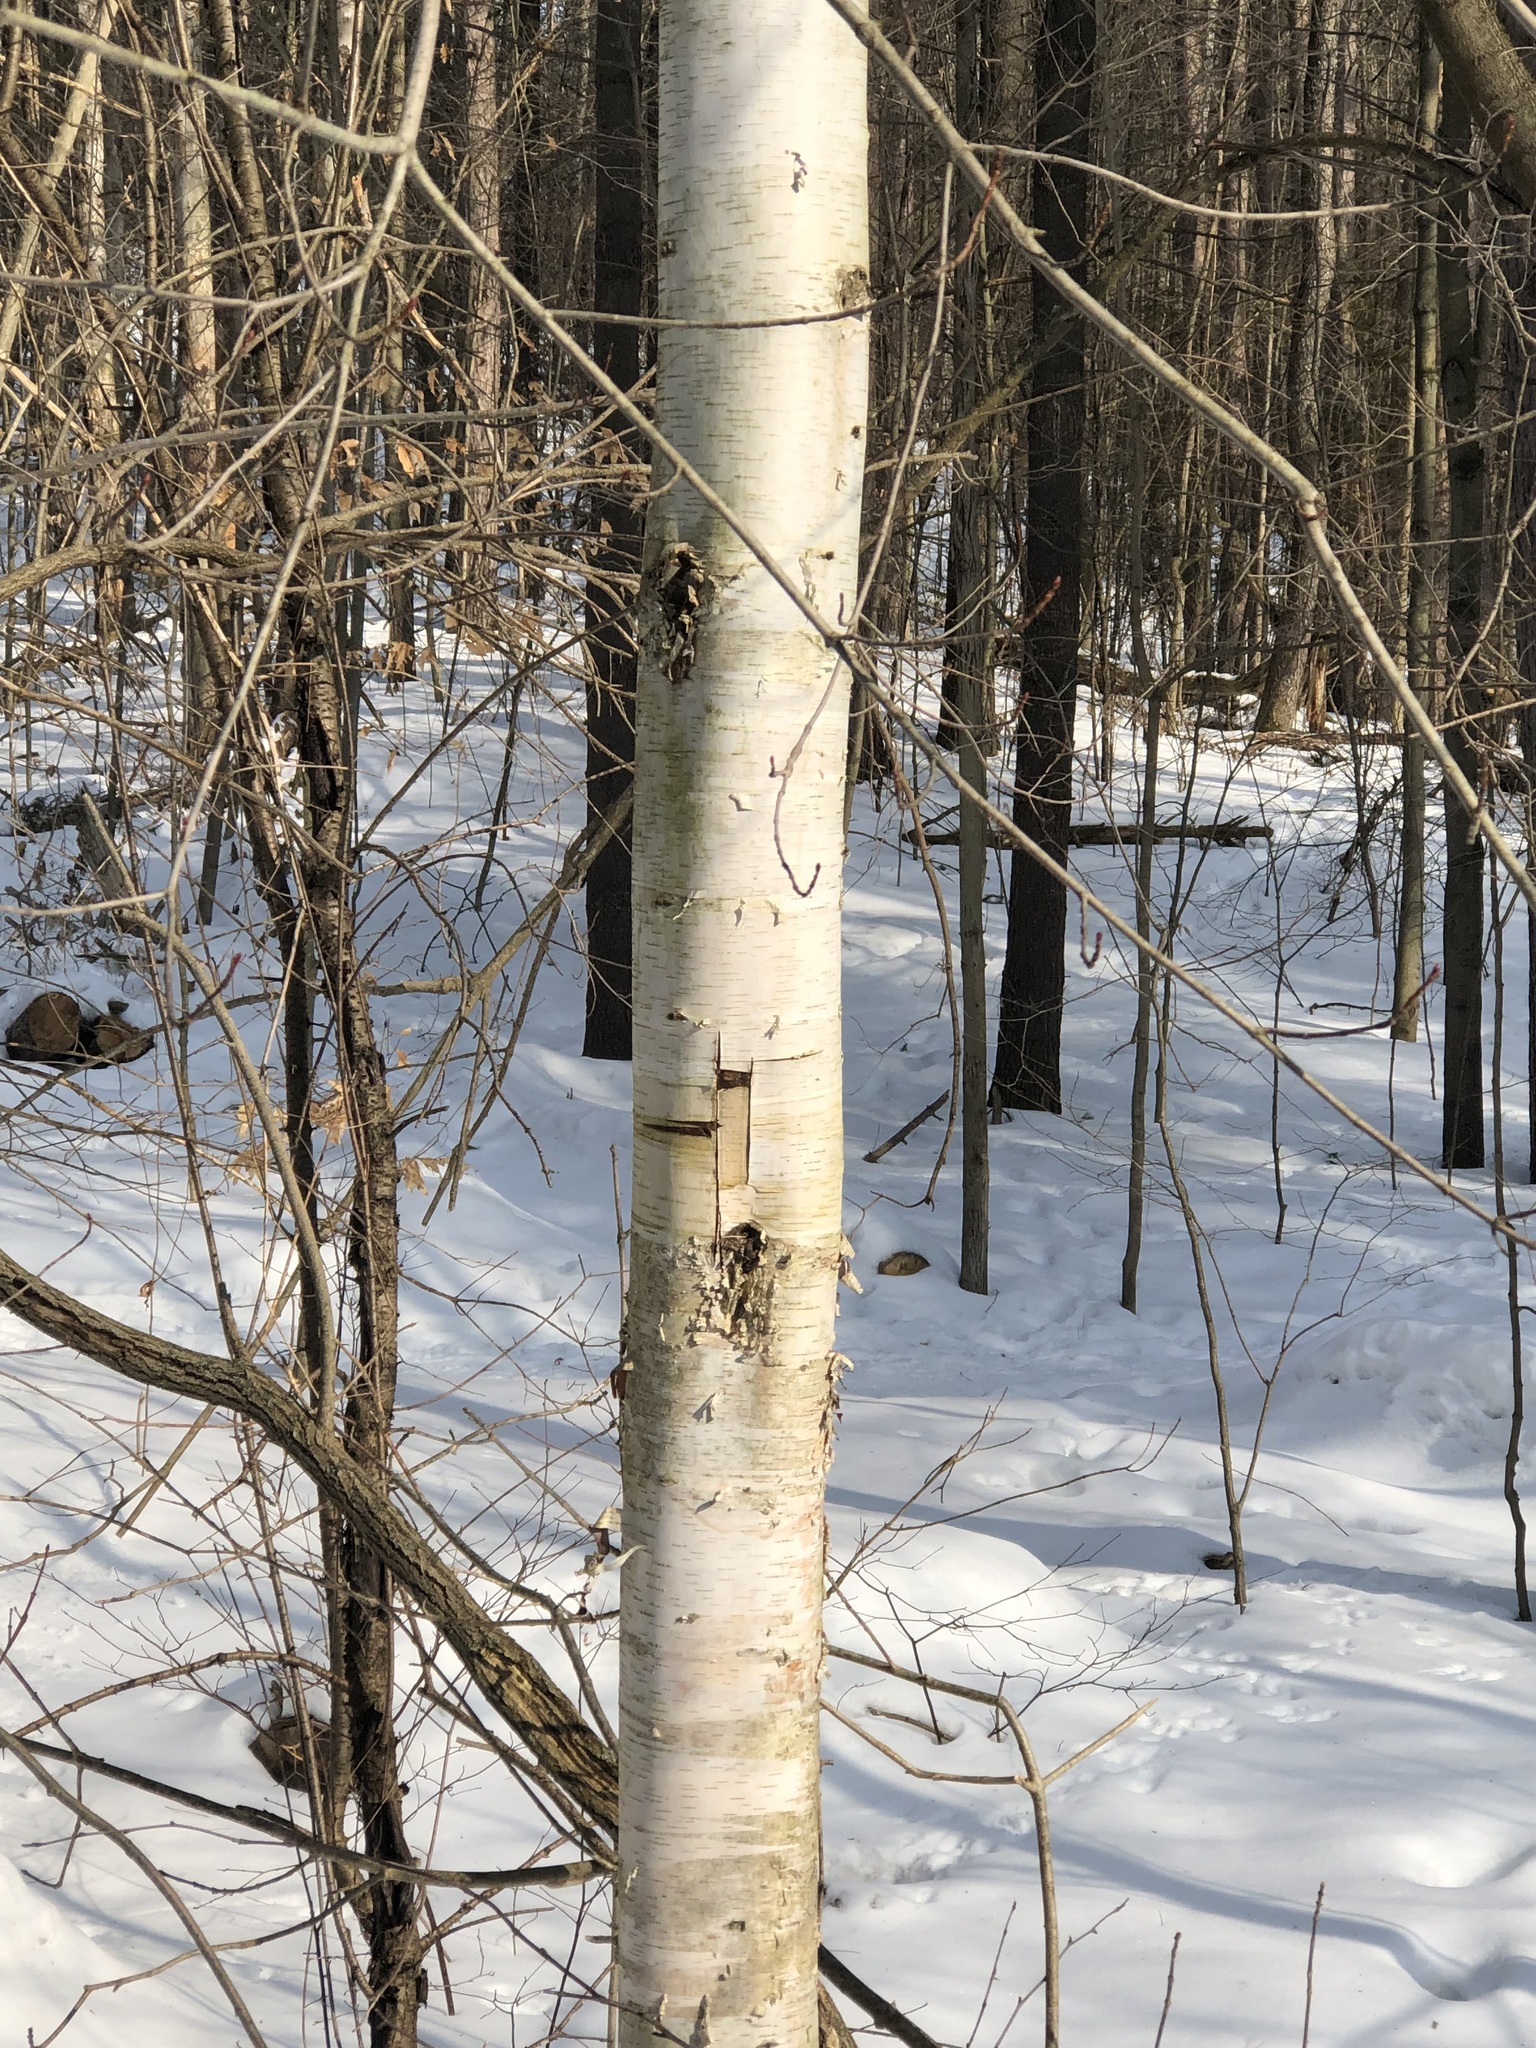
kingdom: Plantae
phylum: Tracheophyta
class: Magnoliopsida
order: Fagales
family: Betulaceae
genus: Betula
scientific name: Betula papyrifera
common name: Paper birch
